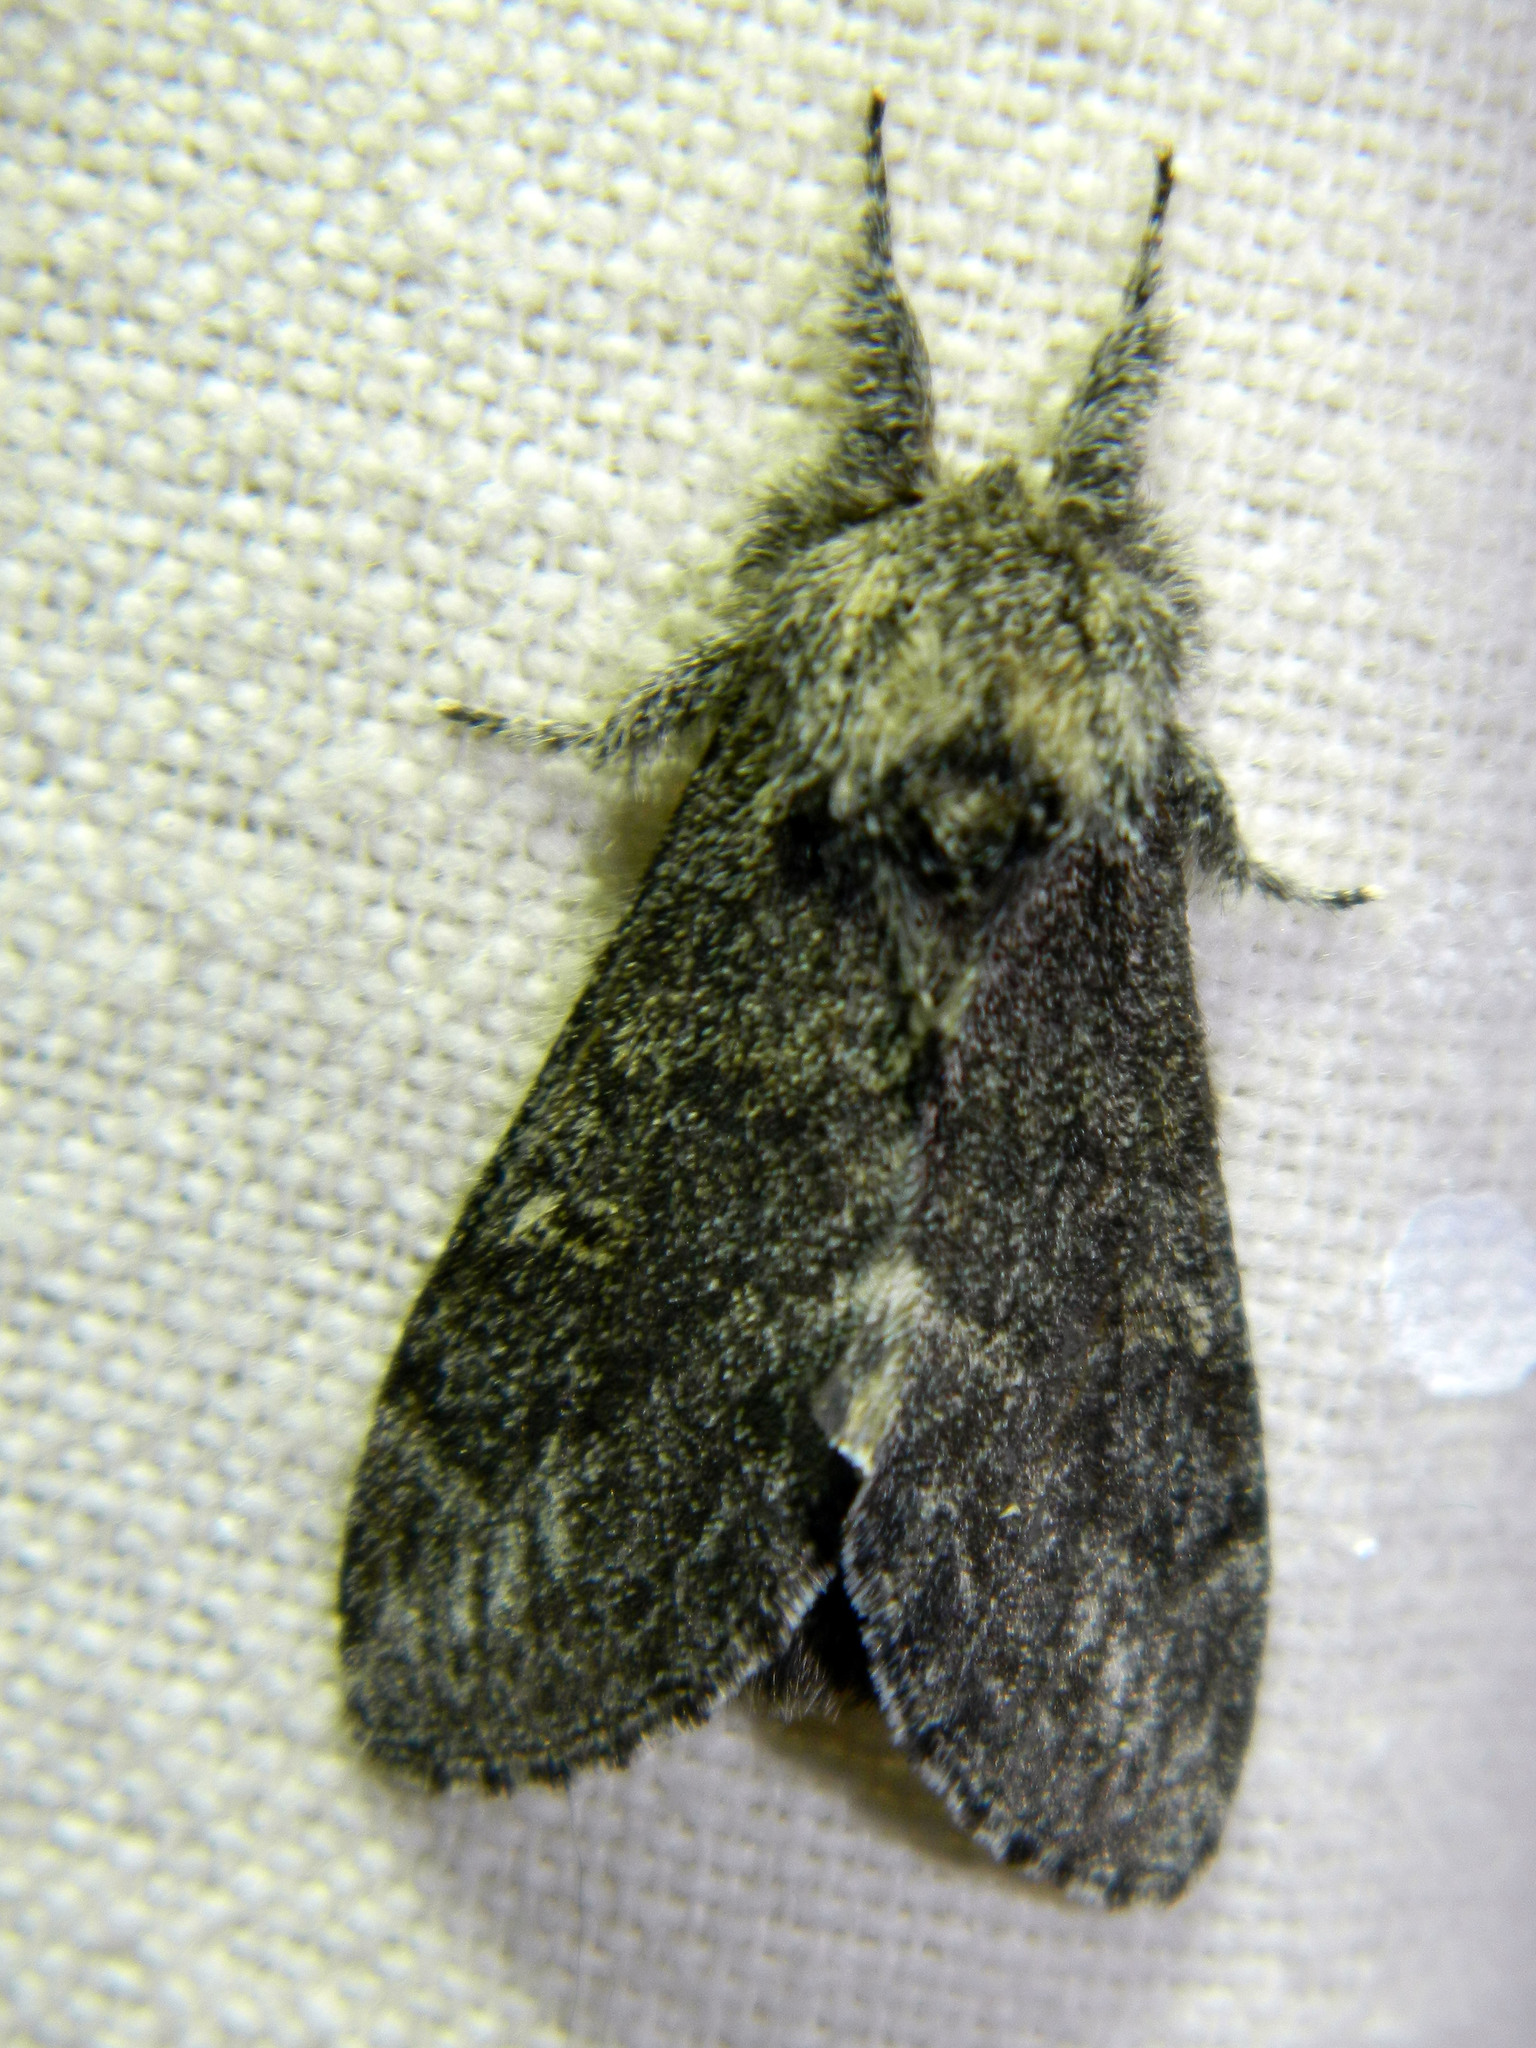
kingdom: Animalia
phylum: Arthropoda
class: Insecta
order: Lepidoptera
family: Notodontidae
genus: Notodonta
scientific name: Notodonta torva
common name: Large dark prominent
